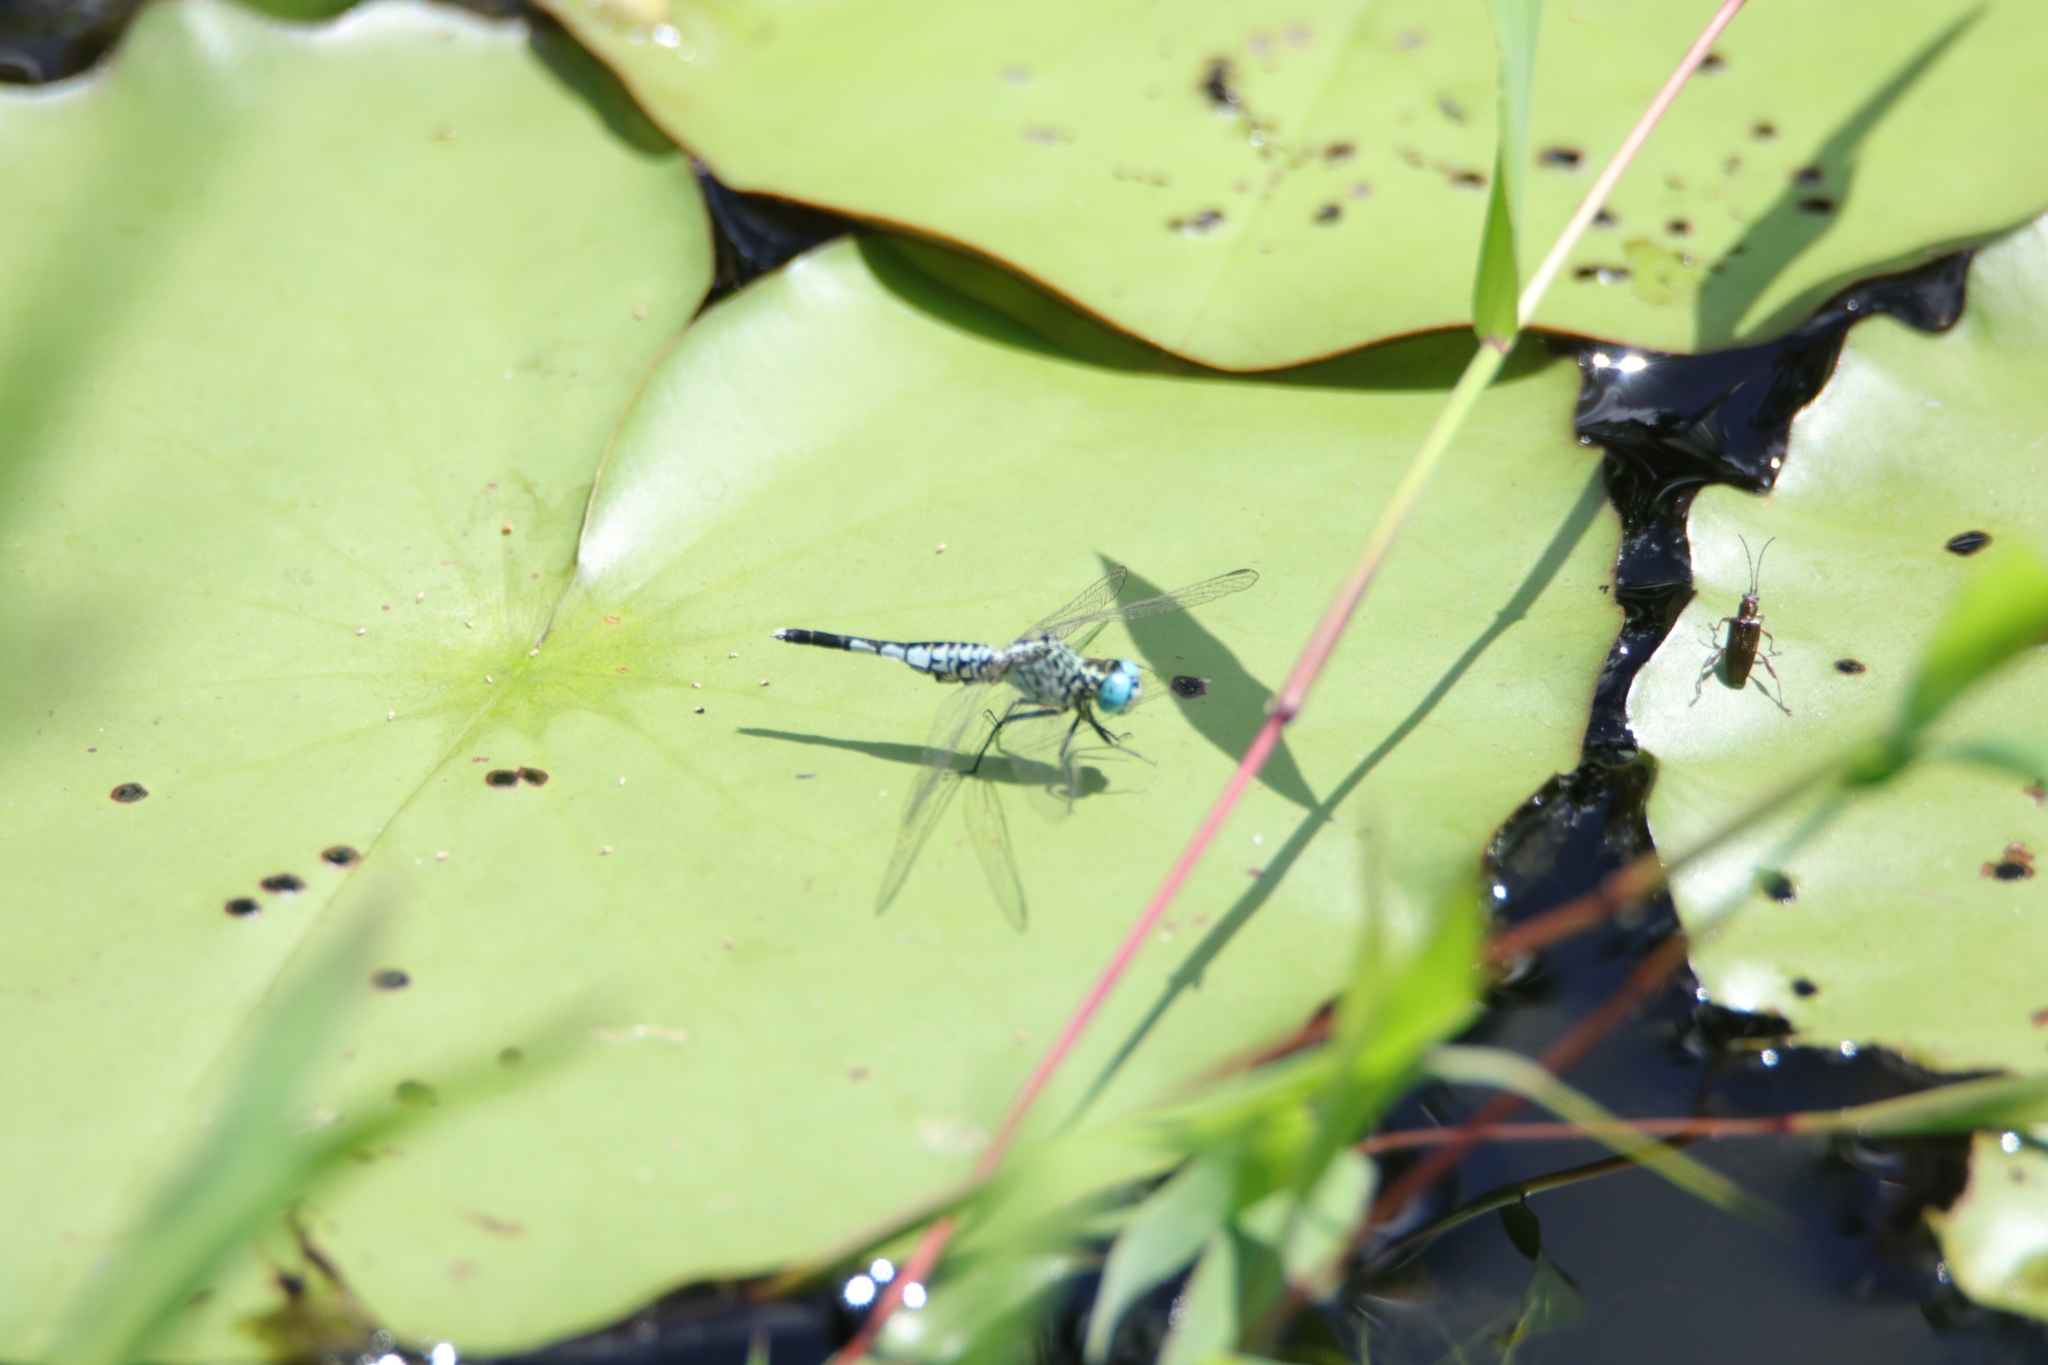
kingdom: Animalia
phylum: Arthropoda
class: Insecta
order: Odonata
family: Libellulidae
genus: Acisoma
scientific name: Acisoma panorpoides
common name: Asian pintail
